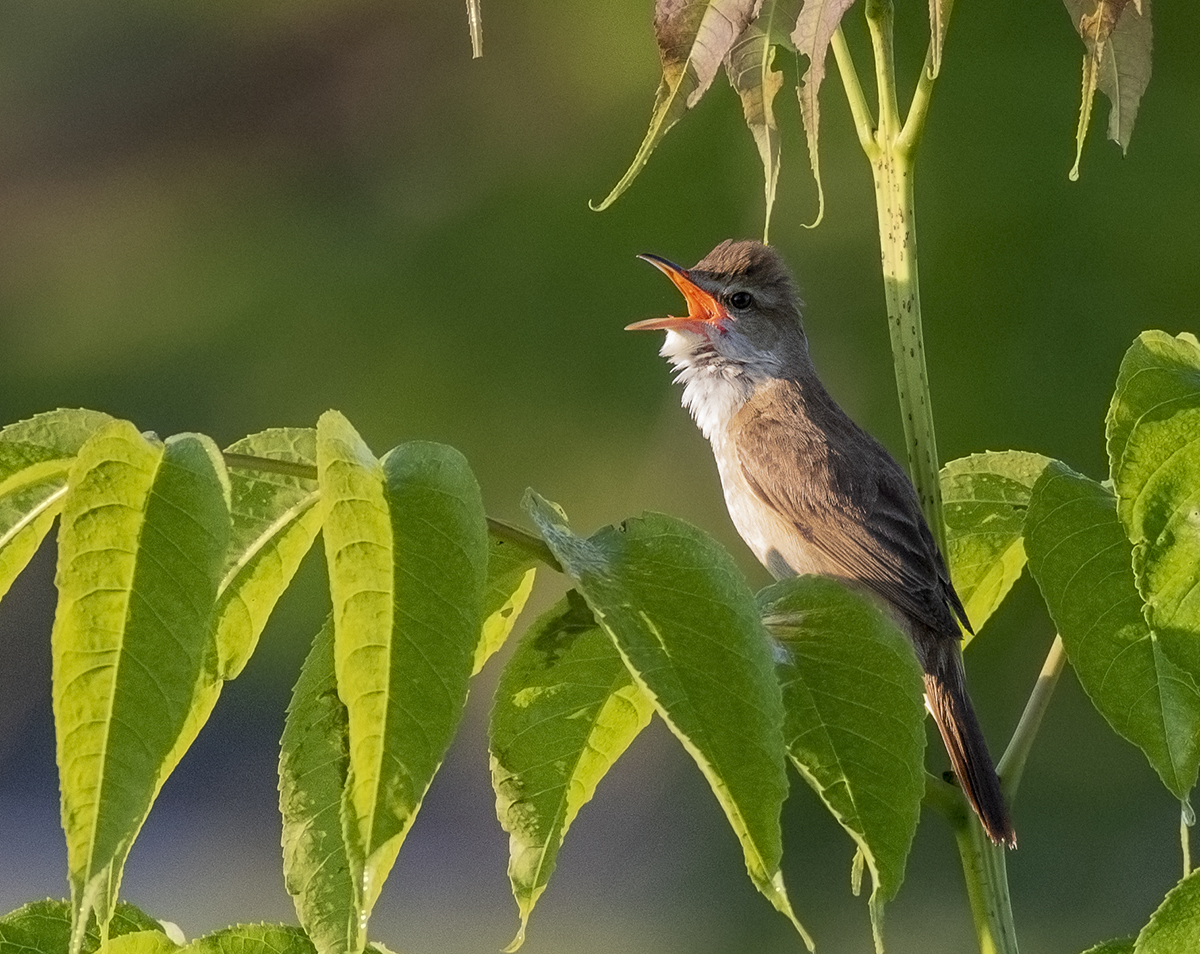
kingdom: Animalia
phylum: Chordata
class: Aves
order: Passeriformes
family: Acrocephalidae
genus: Acrocephalus
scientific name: Acrocephalus orientalis
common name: Oriental reed warbler
